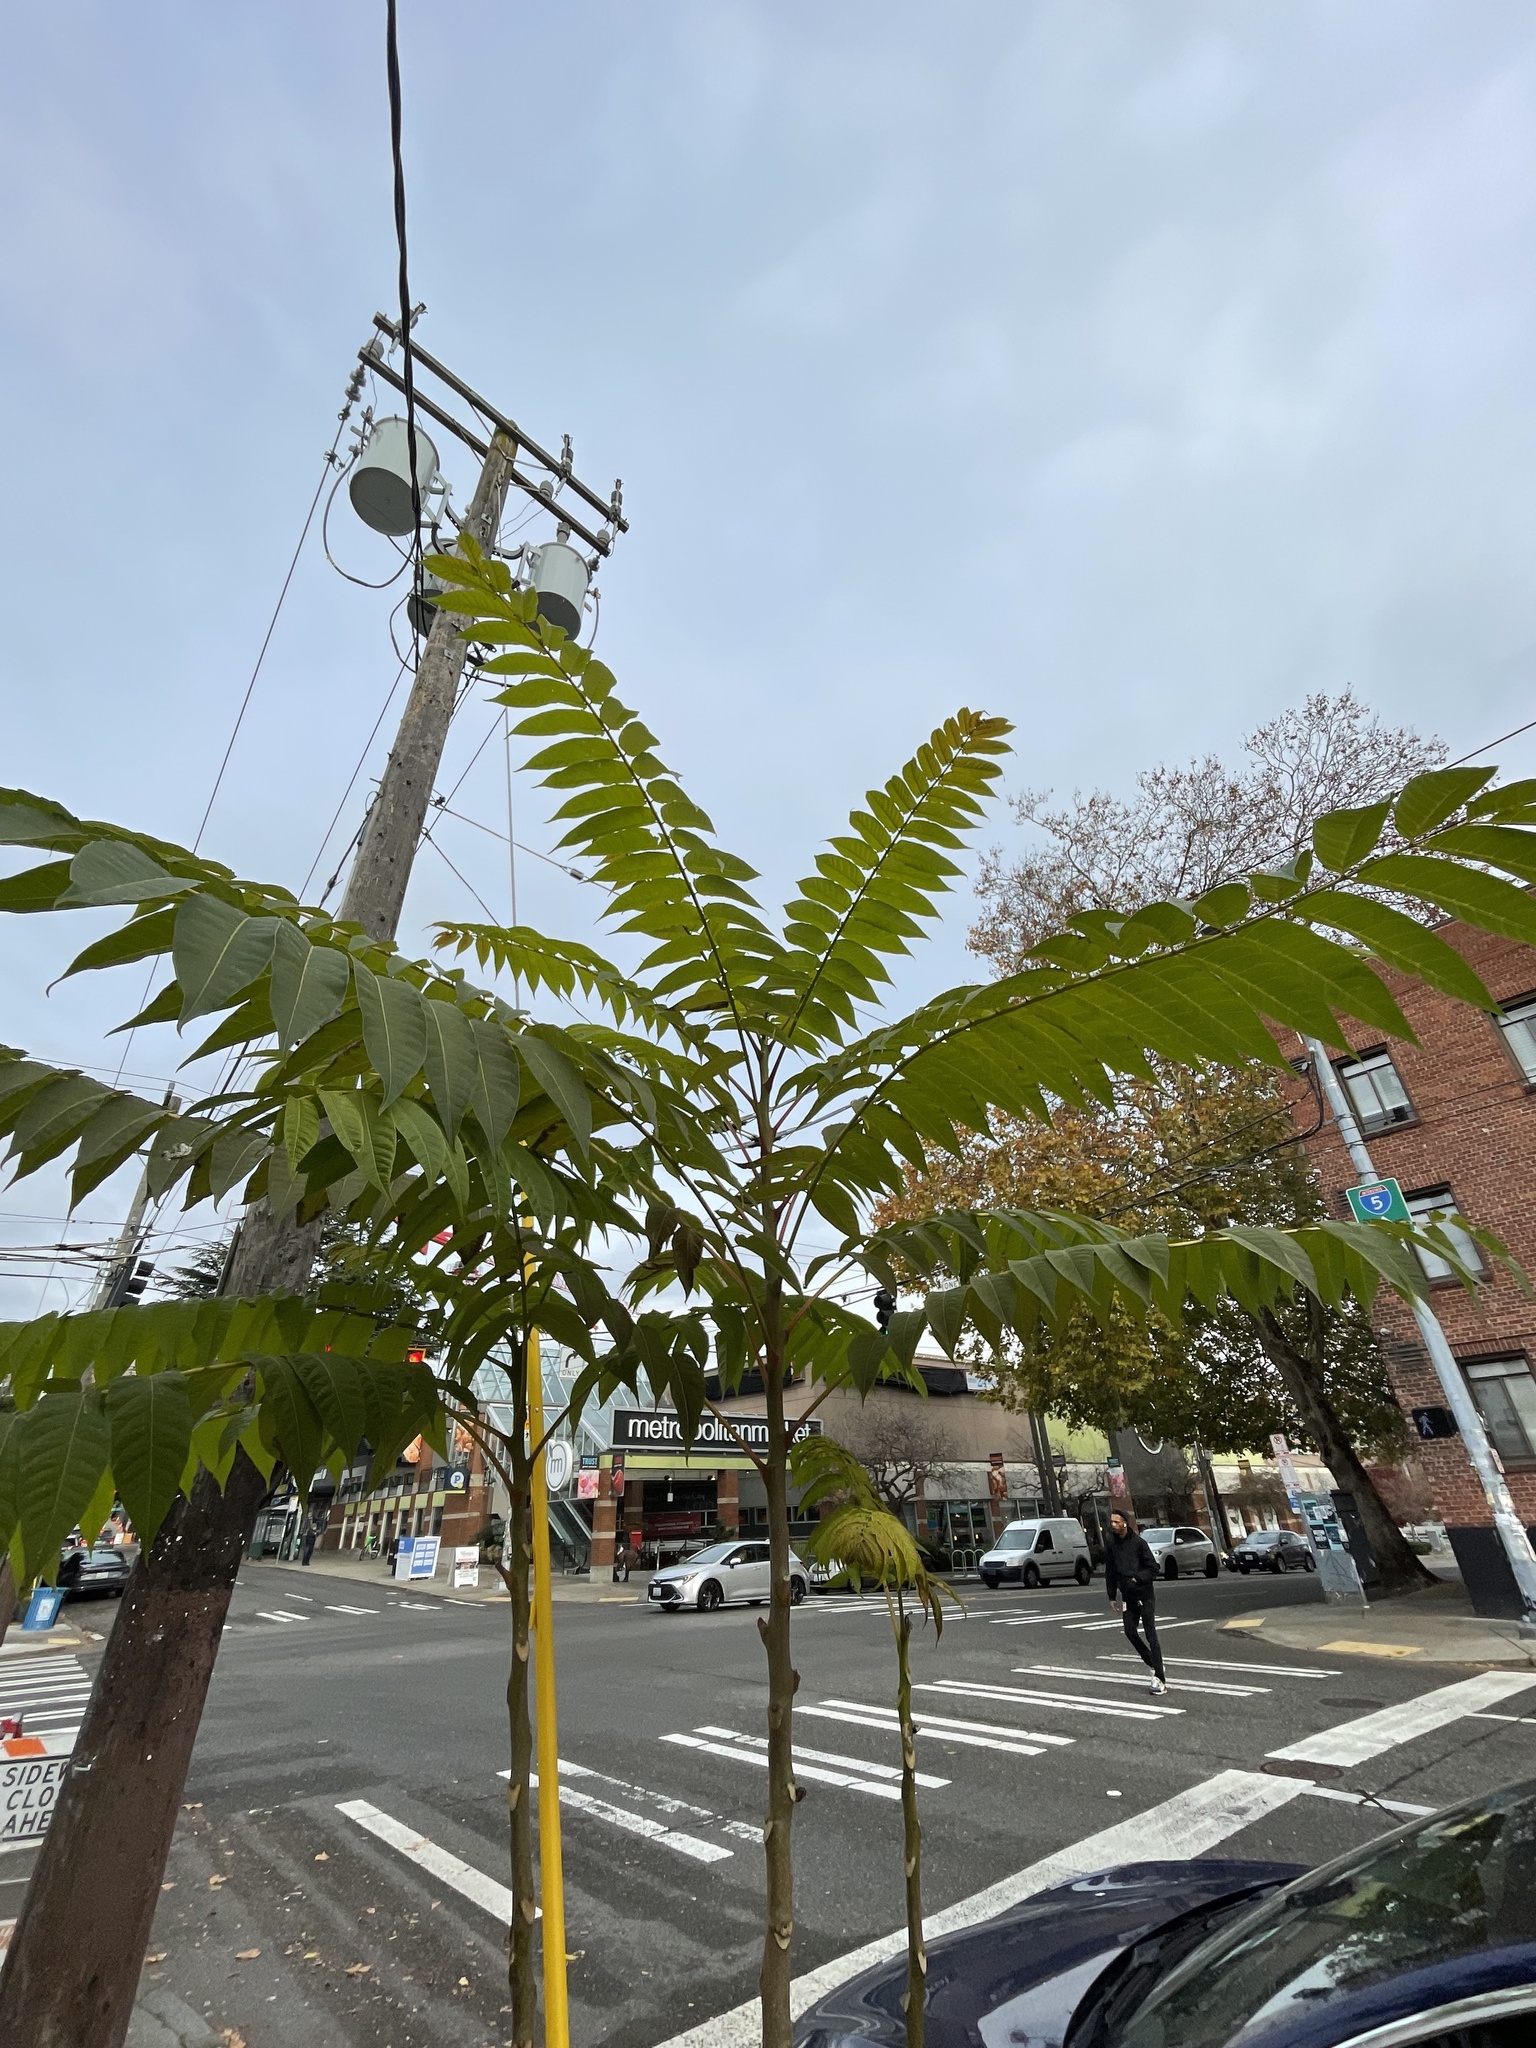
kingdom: Plantae
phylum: Tracheophyta
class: Magnoliopsida
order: Sapindales
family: Simaroubaceae
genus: Ailanthus
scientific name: Ailanthus altissima
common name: Tree-of-heaven
